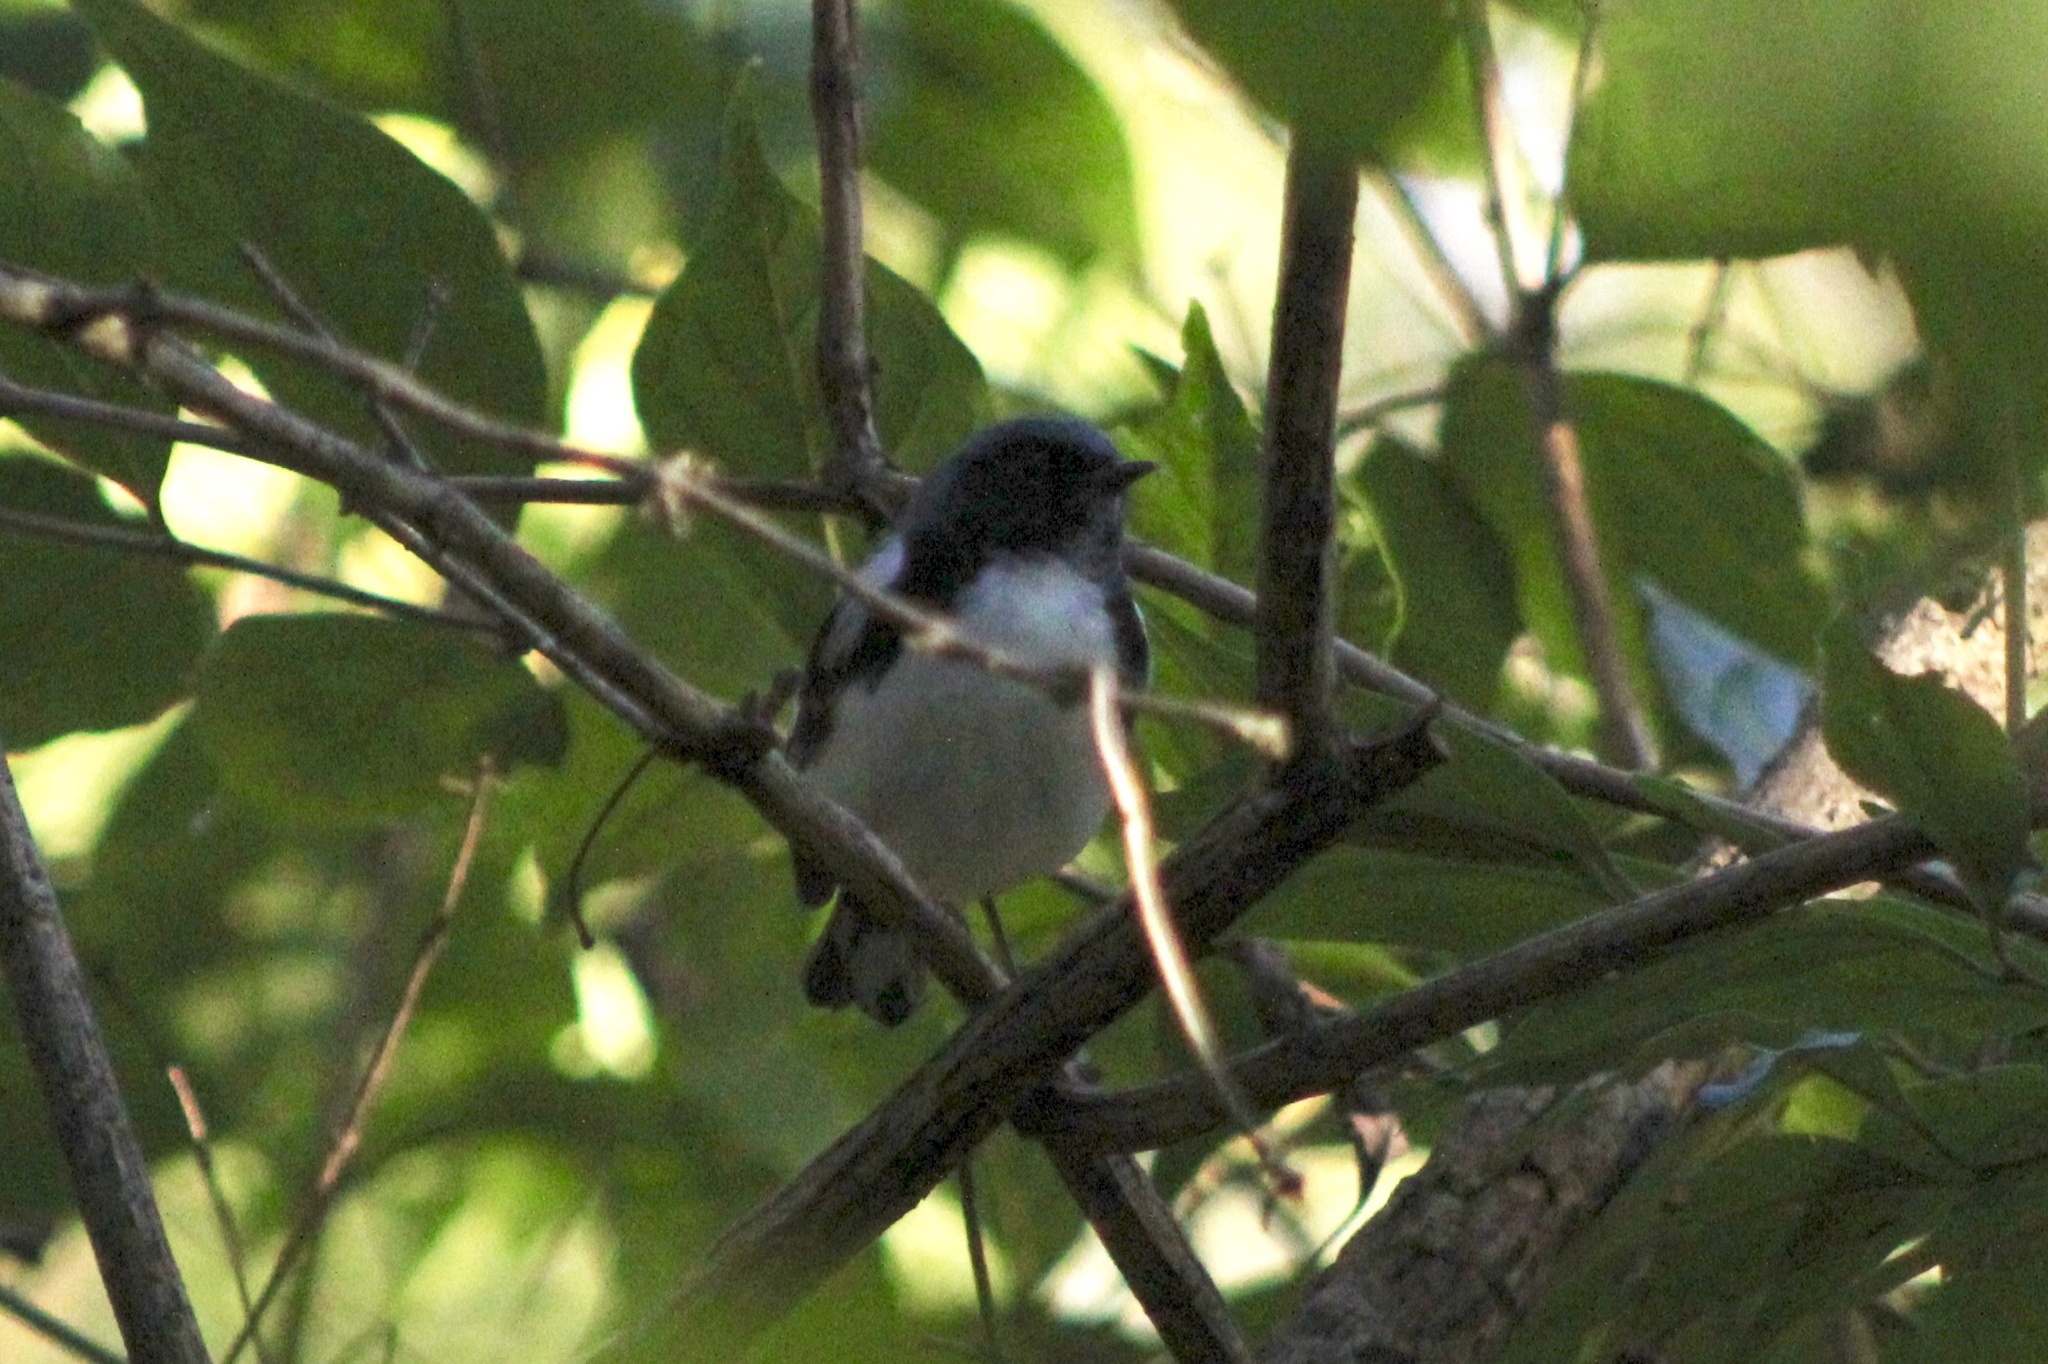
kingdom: Animalia
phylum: Chordata
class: Aves
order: Passeriformes
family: Parulidae
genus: Setophaga
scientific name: Setophaga caerulescens
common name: Black-throated blue warbler
